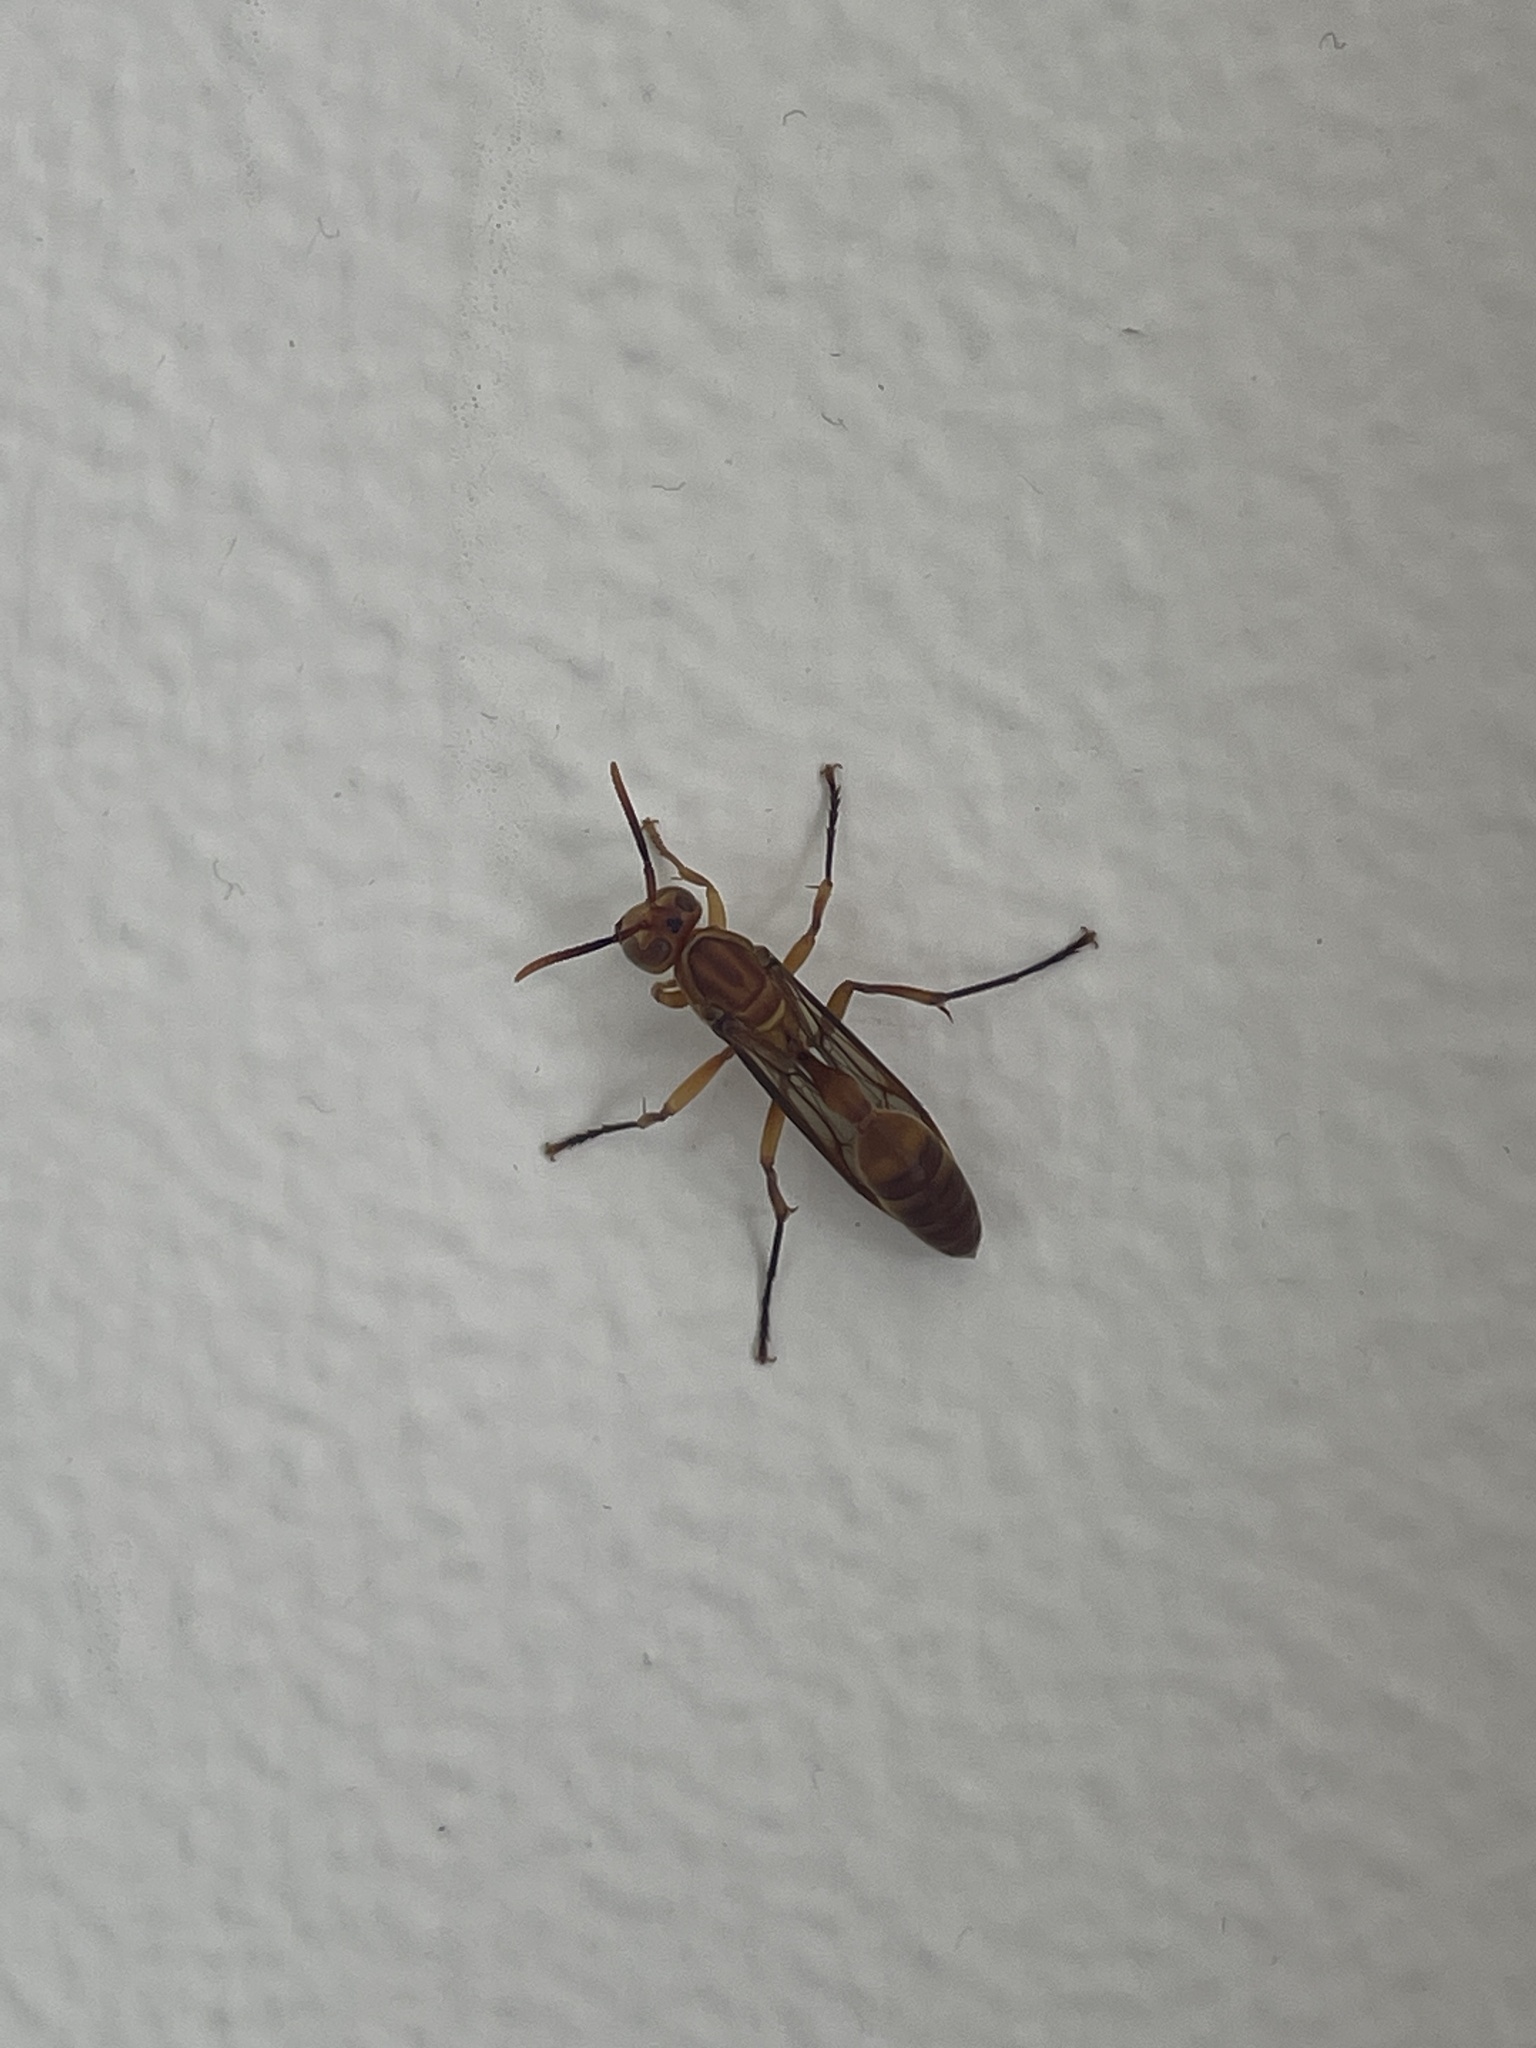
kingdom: Animalia
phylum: Arthropoda
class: Insecta
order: Hymenoptera
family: Vespidae
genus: Parapolybia
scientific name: Parapolybia indica
